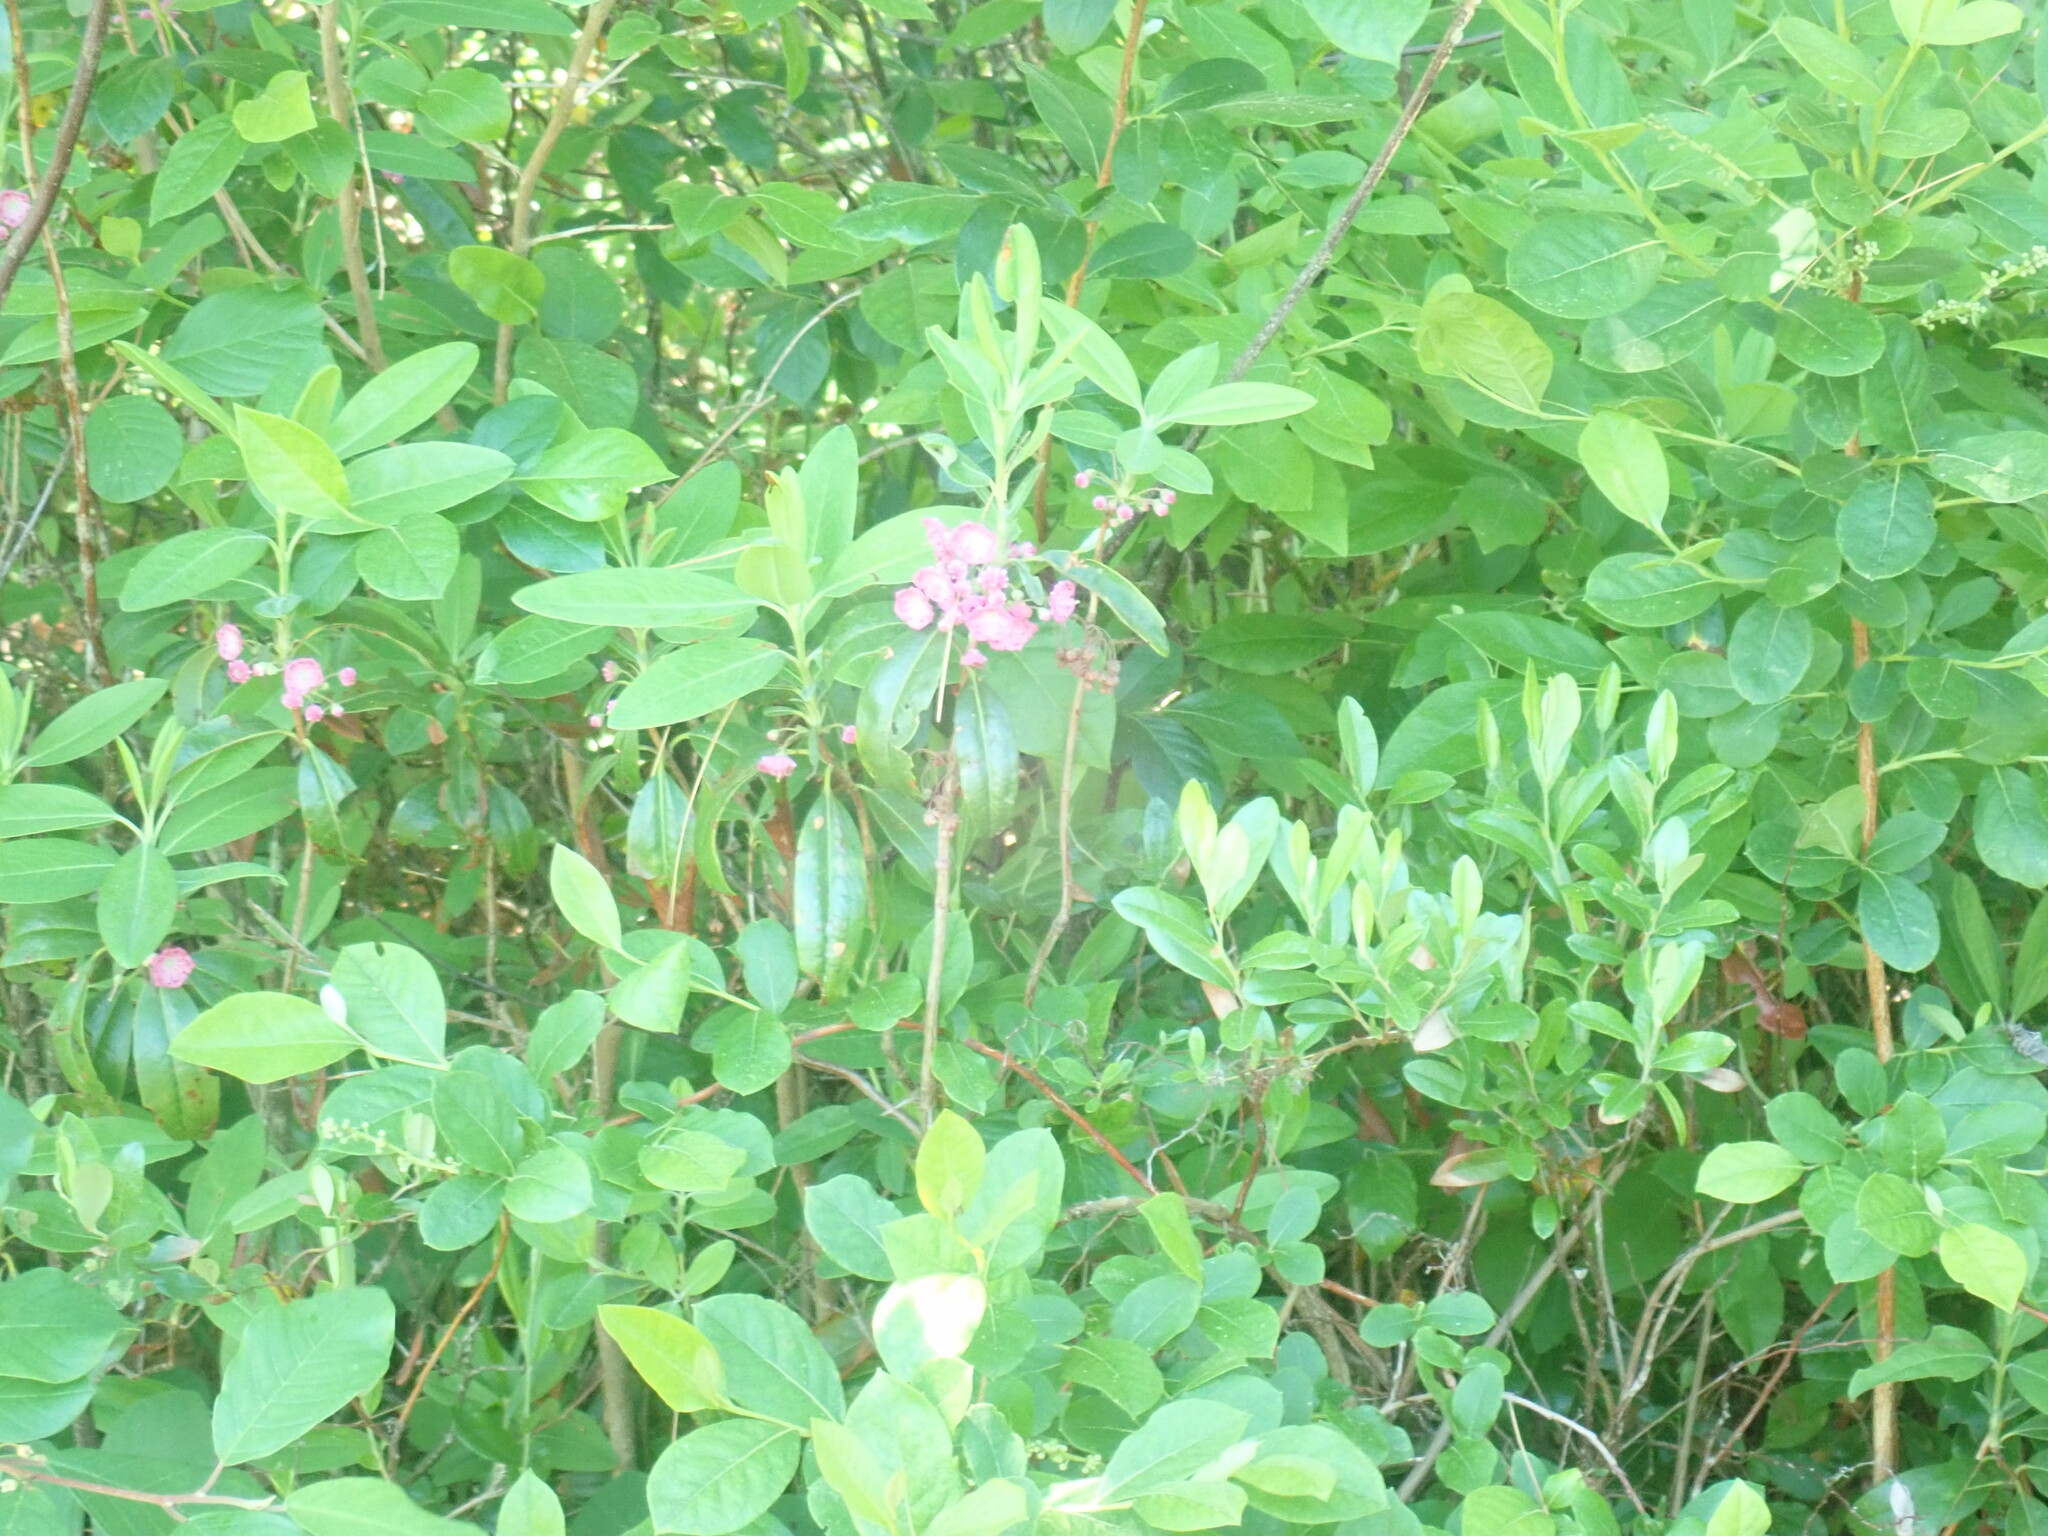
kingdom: Plantae
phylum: Tracheophyta
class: Magnoliopsida
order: Ericales
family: Ericaceae
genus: Kalmia
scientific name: Kalmia angustifolia
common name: Sheep-laurel
